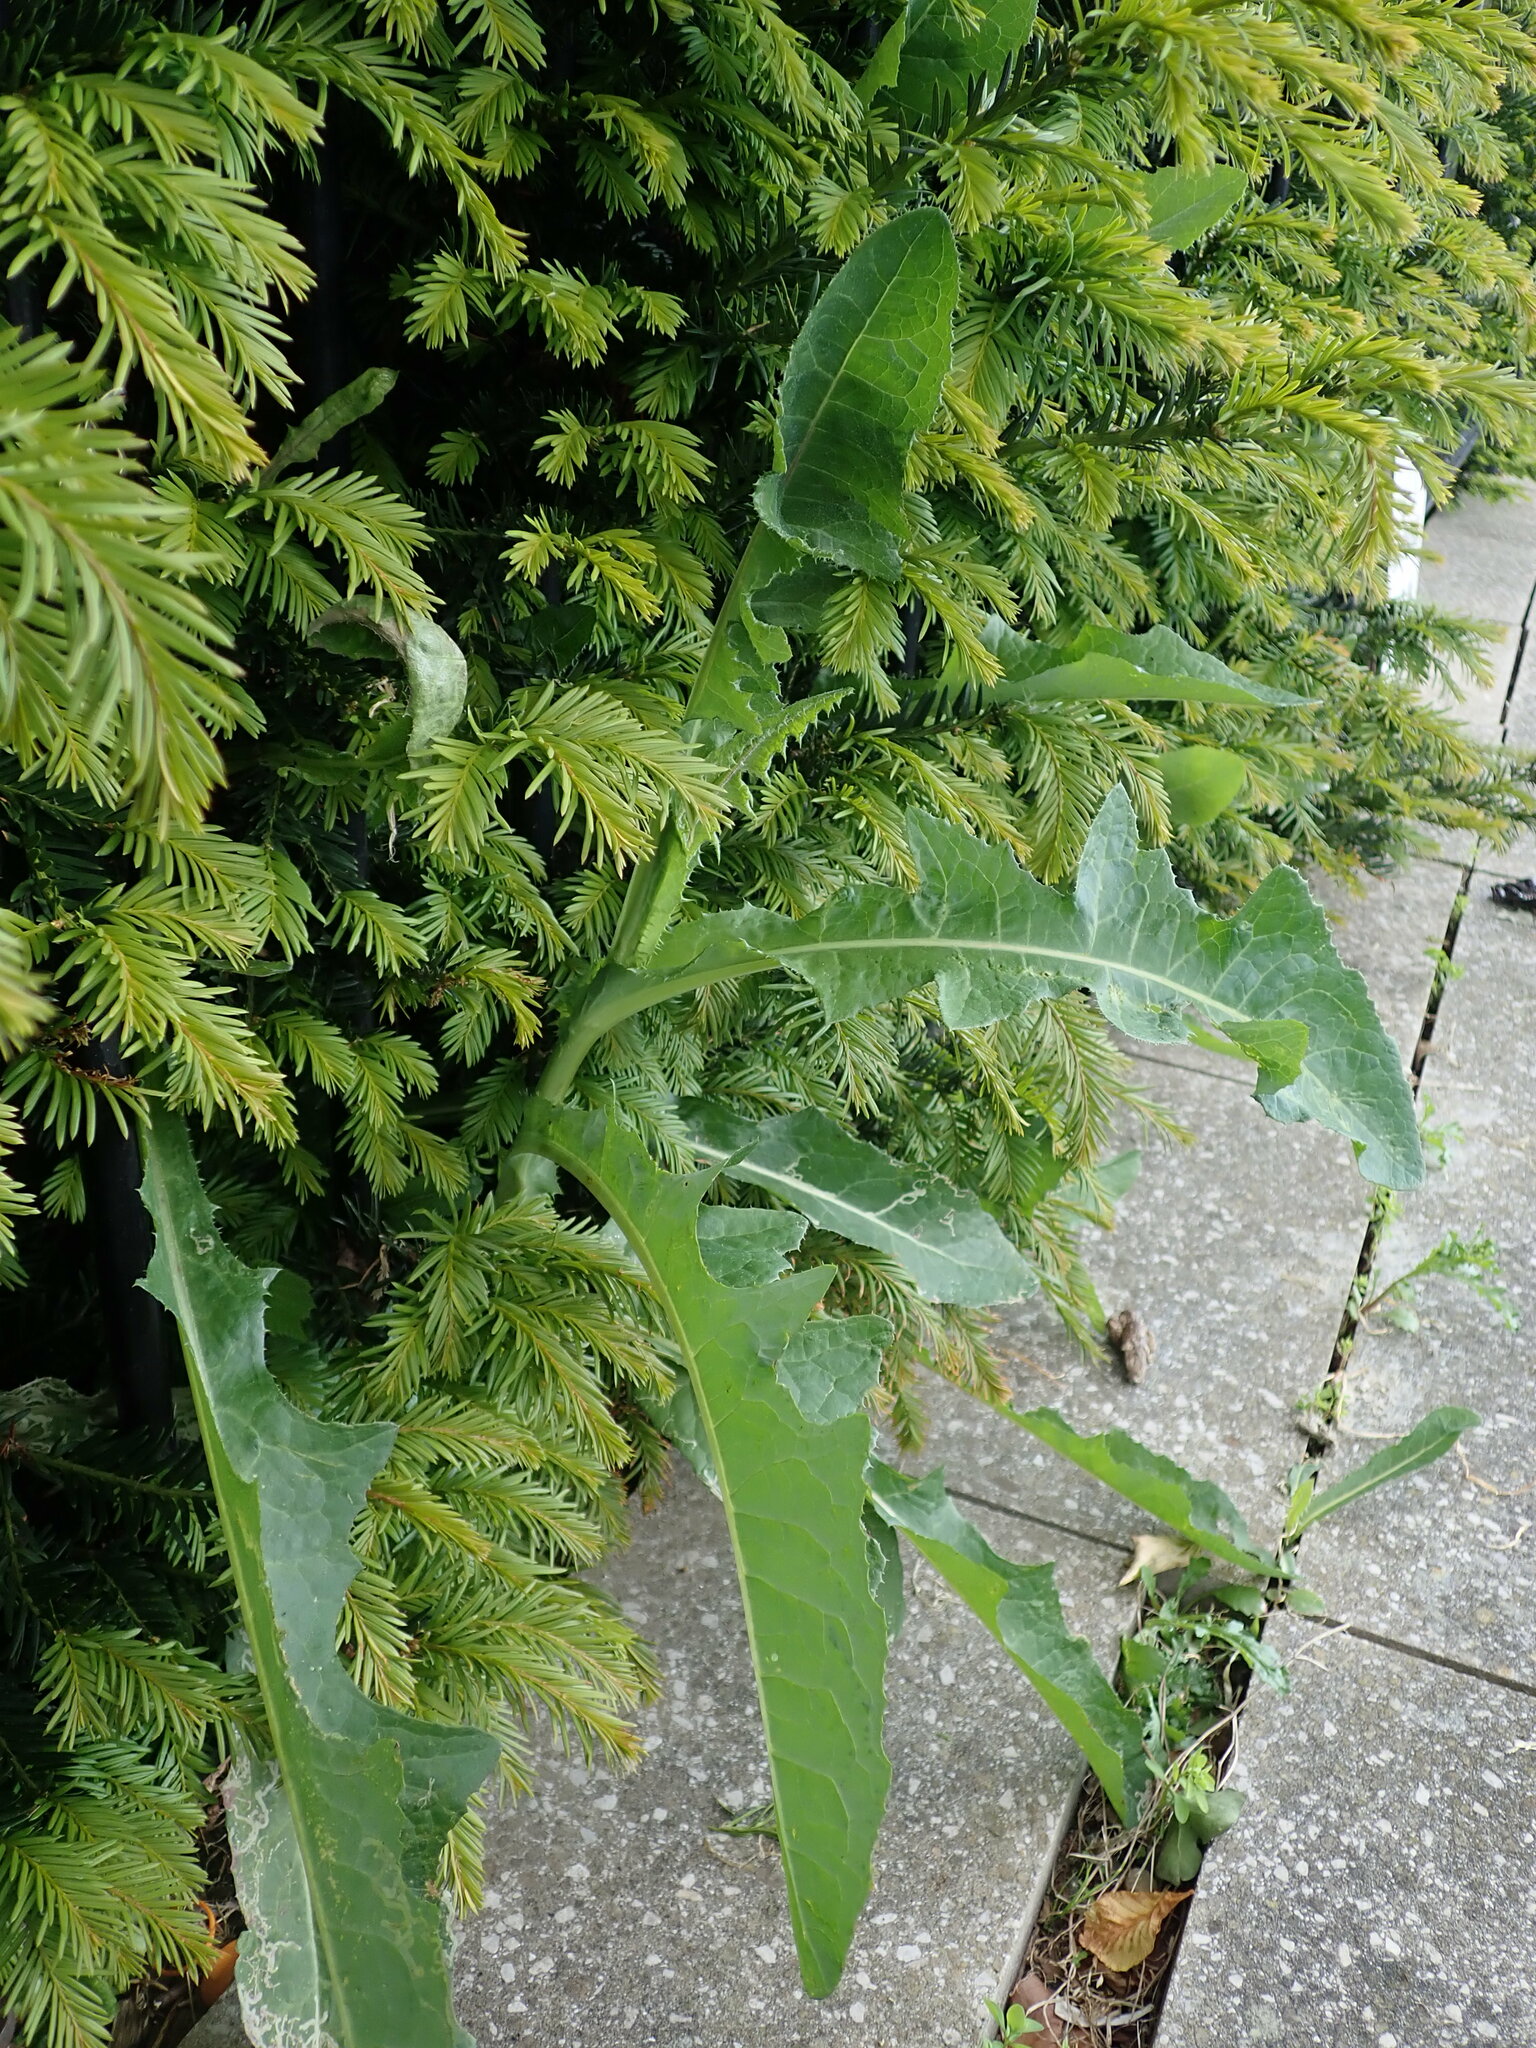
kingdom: Plantae
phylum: Tracheophyta
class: Magnoliopsida
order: Asterales
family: Asteraceae
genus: Sonchus
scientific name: Sonchus arvensis
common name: Perennial sow-thistle
